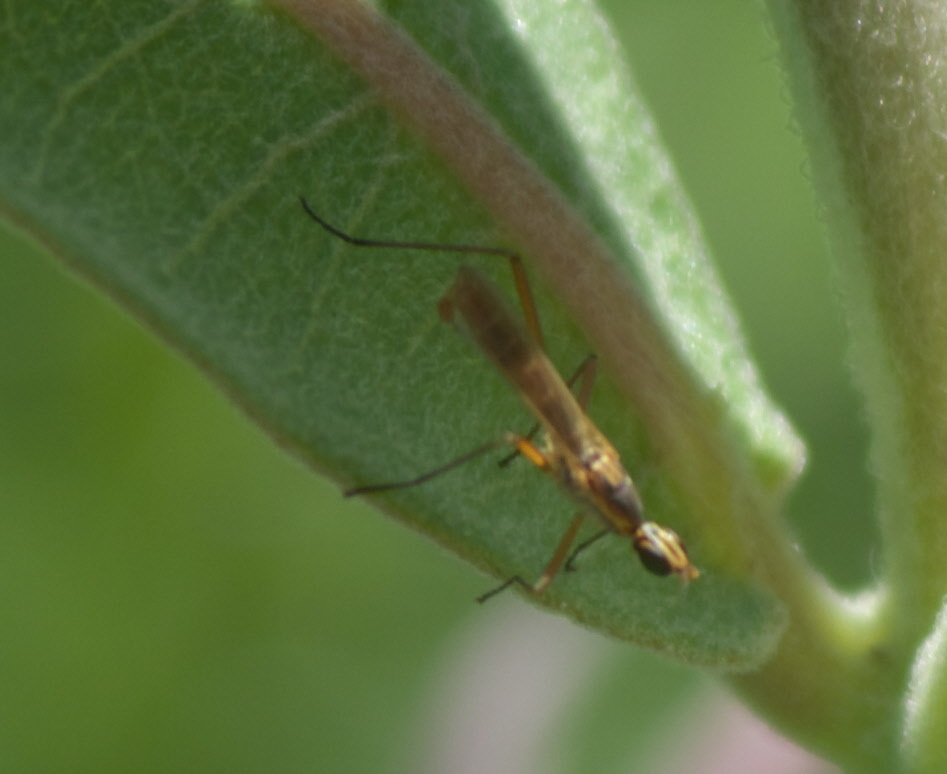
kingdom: Animalia
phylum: Arthropoda
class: Insecta
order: Diptera
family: Micropezidae
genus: Micropeza
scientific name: Micropeza lineata
